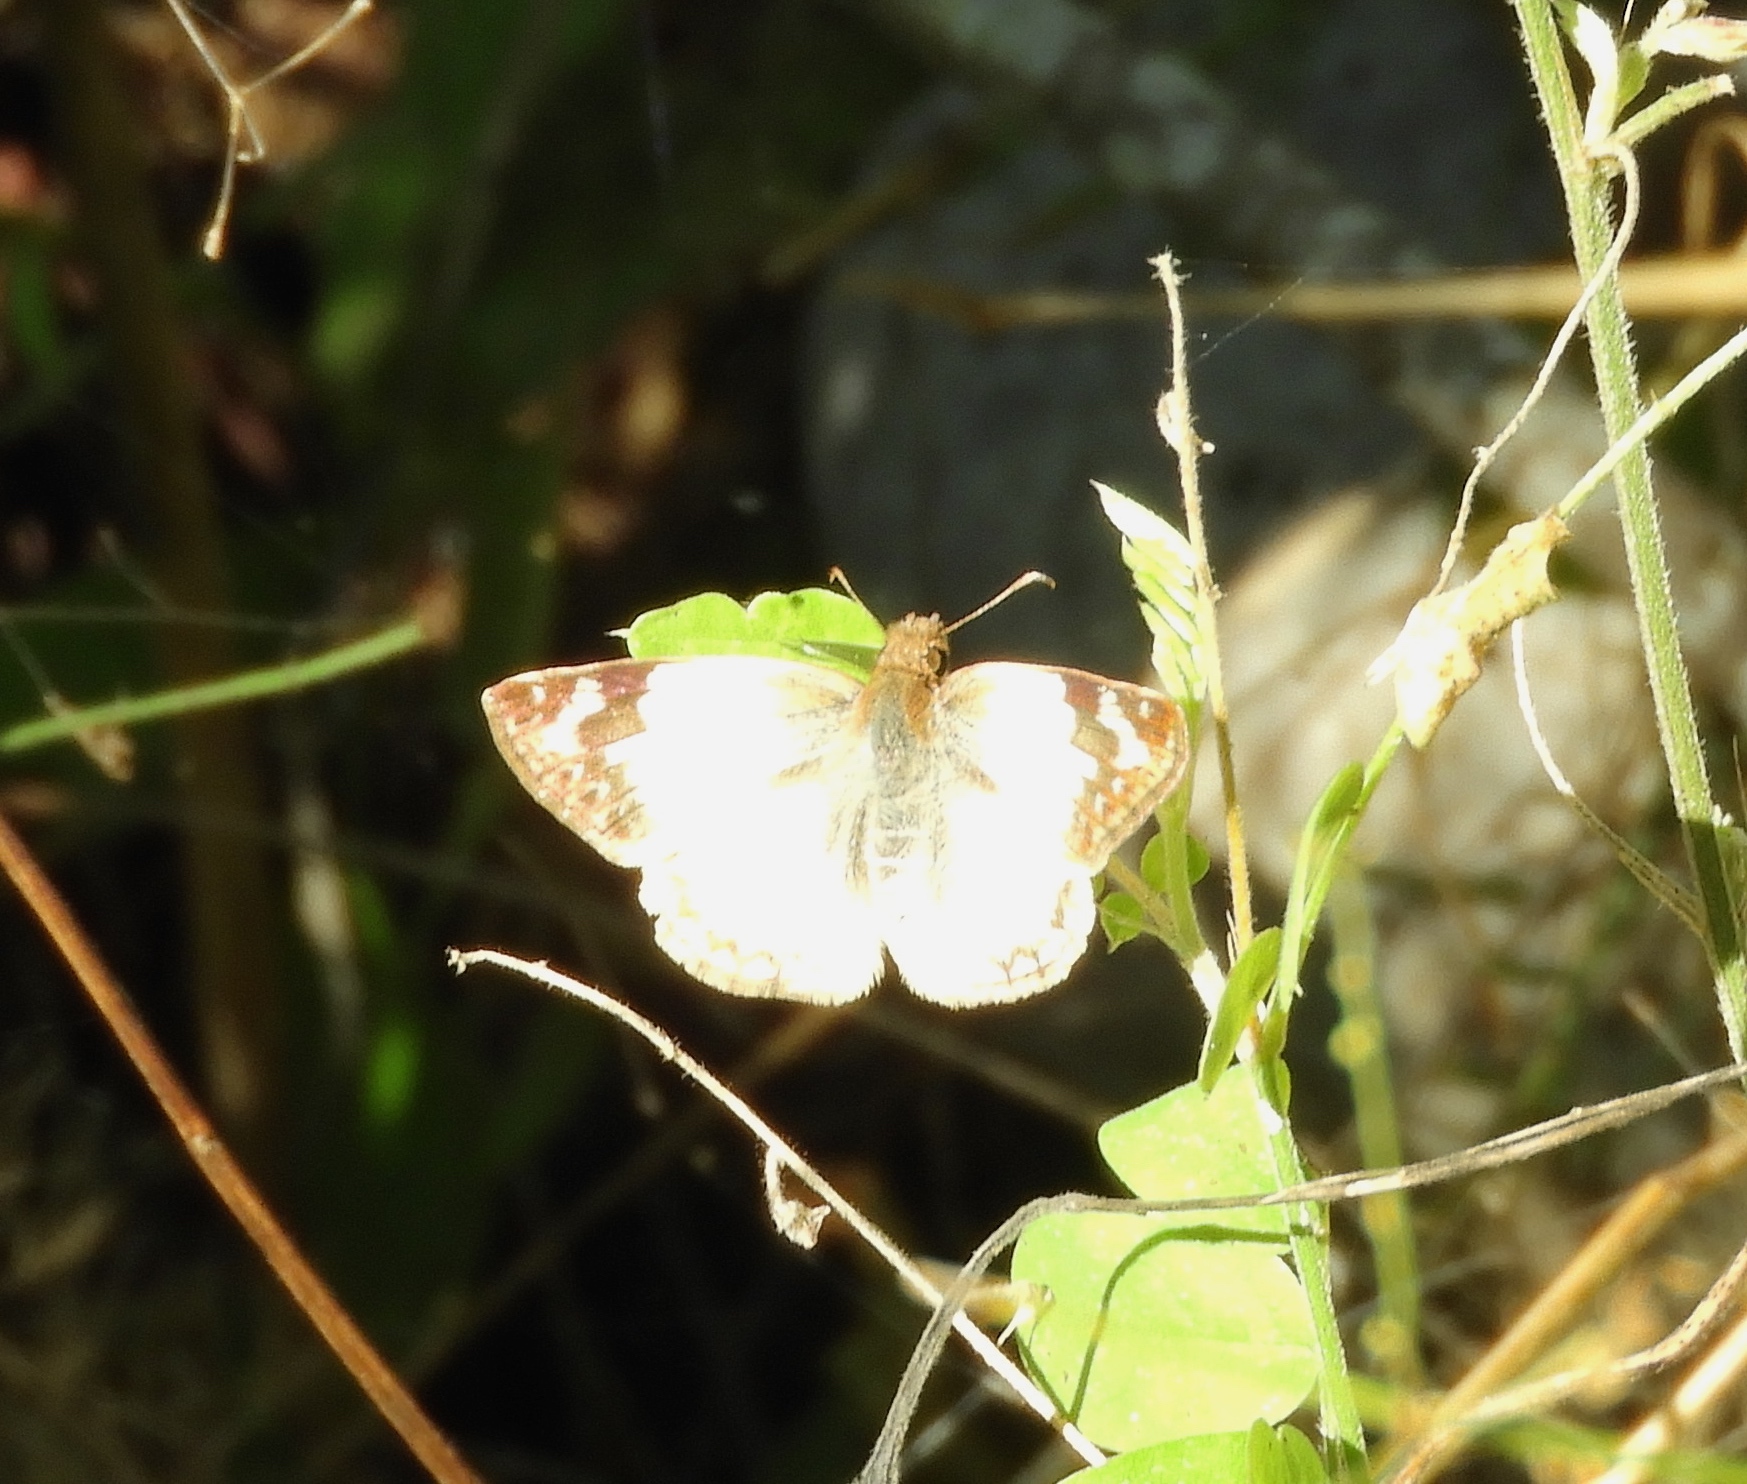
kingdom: Animalia
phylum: Arthropoda
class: Insecta
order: Lepidoptera
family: Hesperiidae
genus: Heliopetes
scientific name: Heliopetes laviana
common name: Laviana white-skipper
